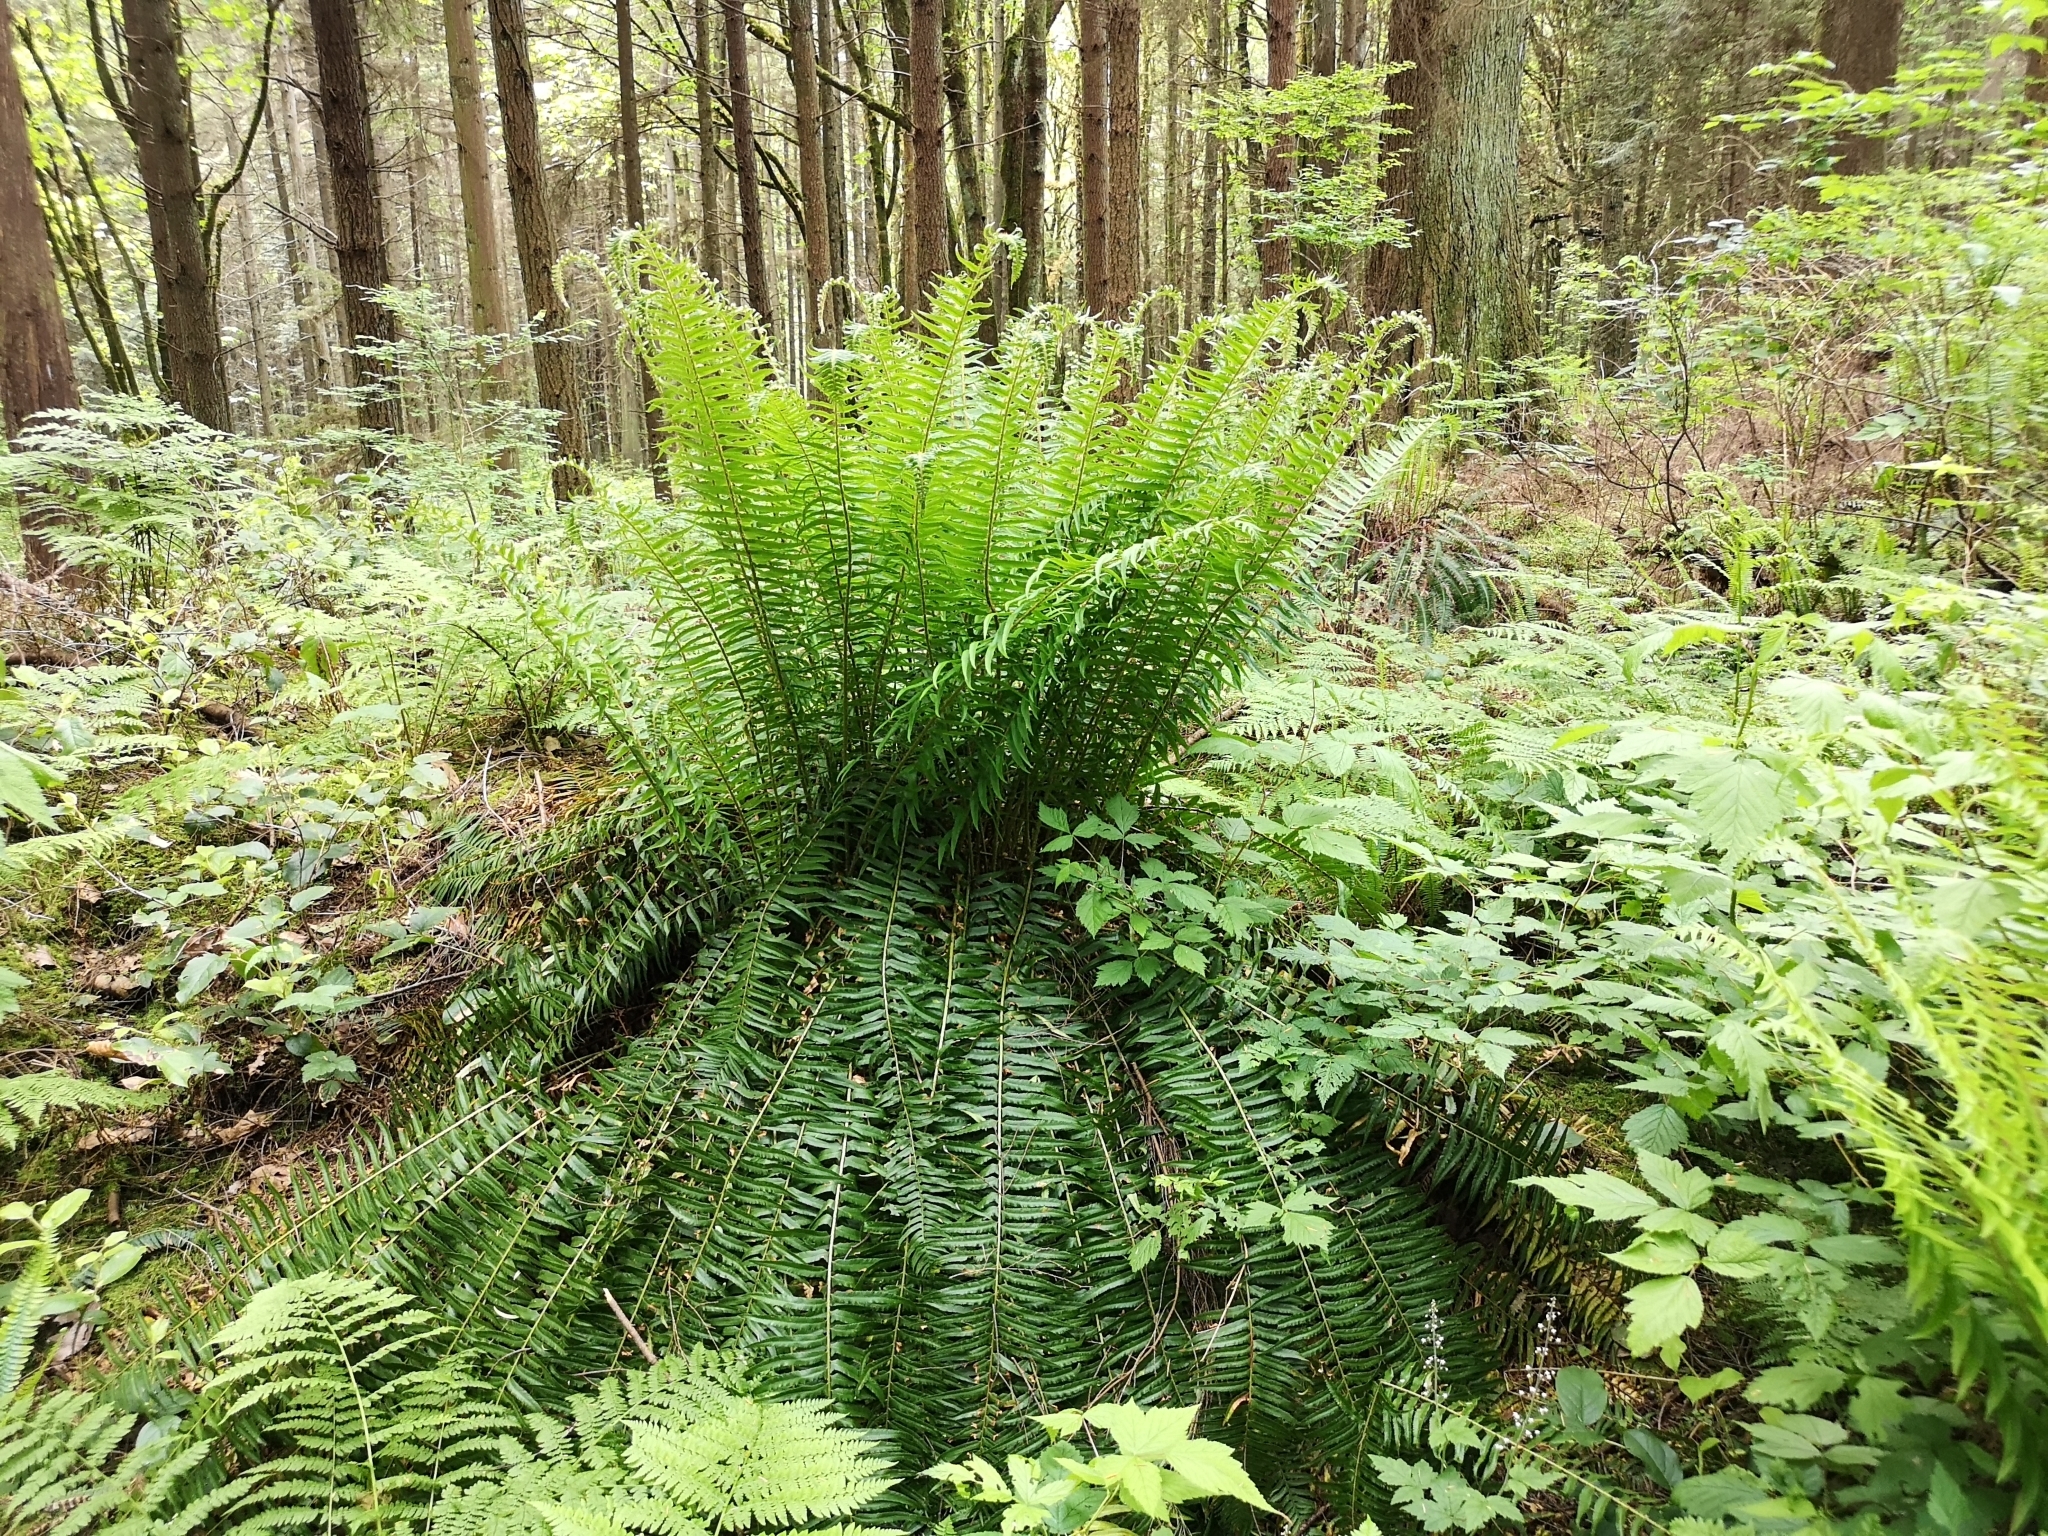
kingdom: Plantae
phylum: Tracheophyta
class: Polypodiopsida
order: Polypodiales
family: Dryopteridaceae
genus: Polystichum
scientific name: Polystichum munitum
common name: Western sword-fern
